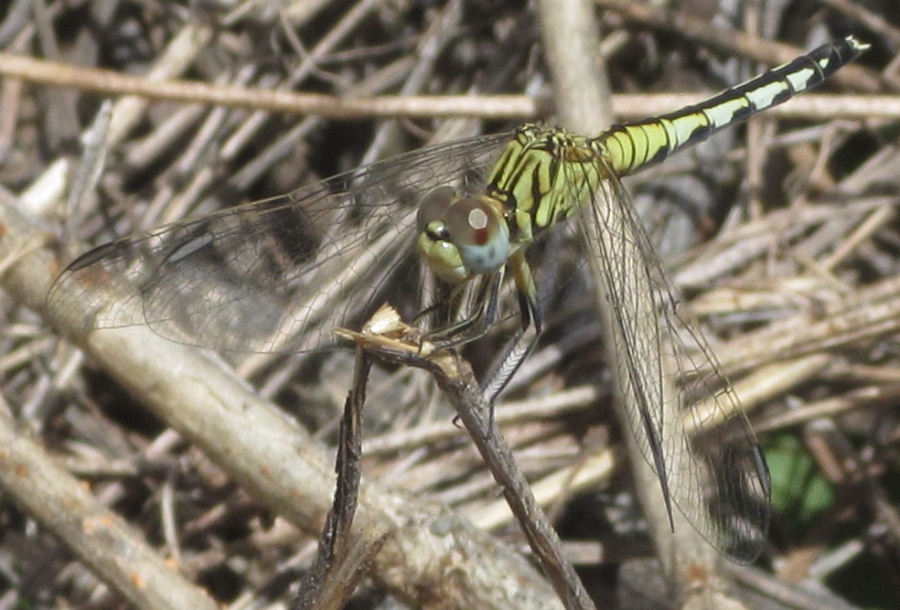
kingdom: Animalia
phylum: Arthropoda
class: Insecta
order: Odonata
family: Libellulidae
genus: Diplacodes
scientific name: Diplacodes lefebvrii
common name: Black percher
